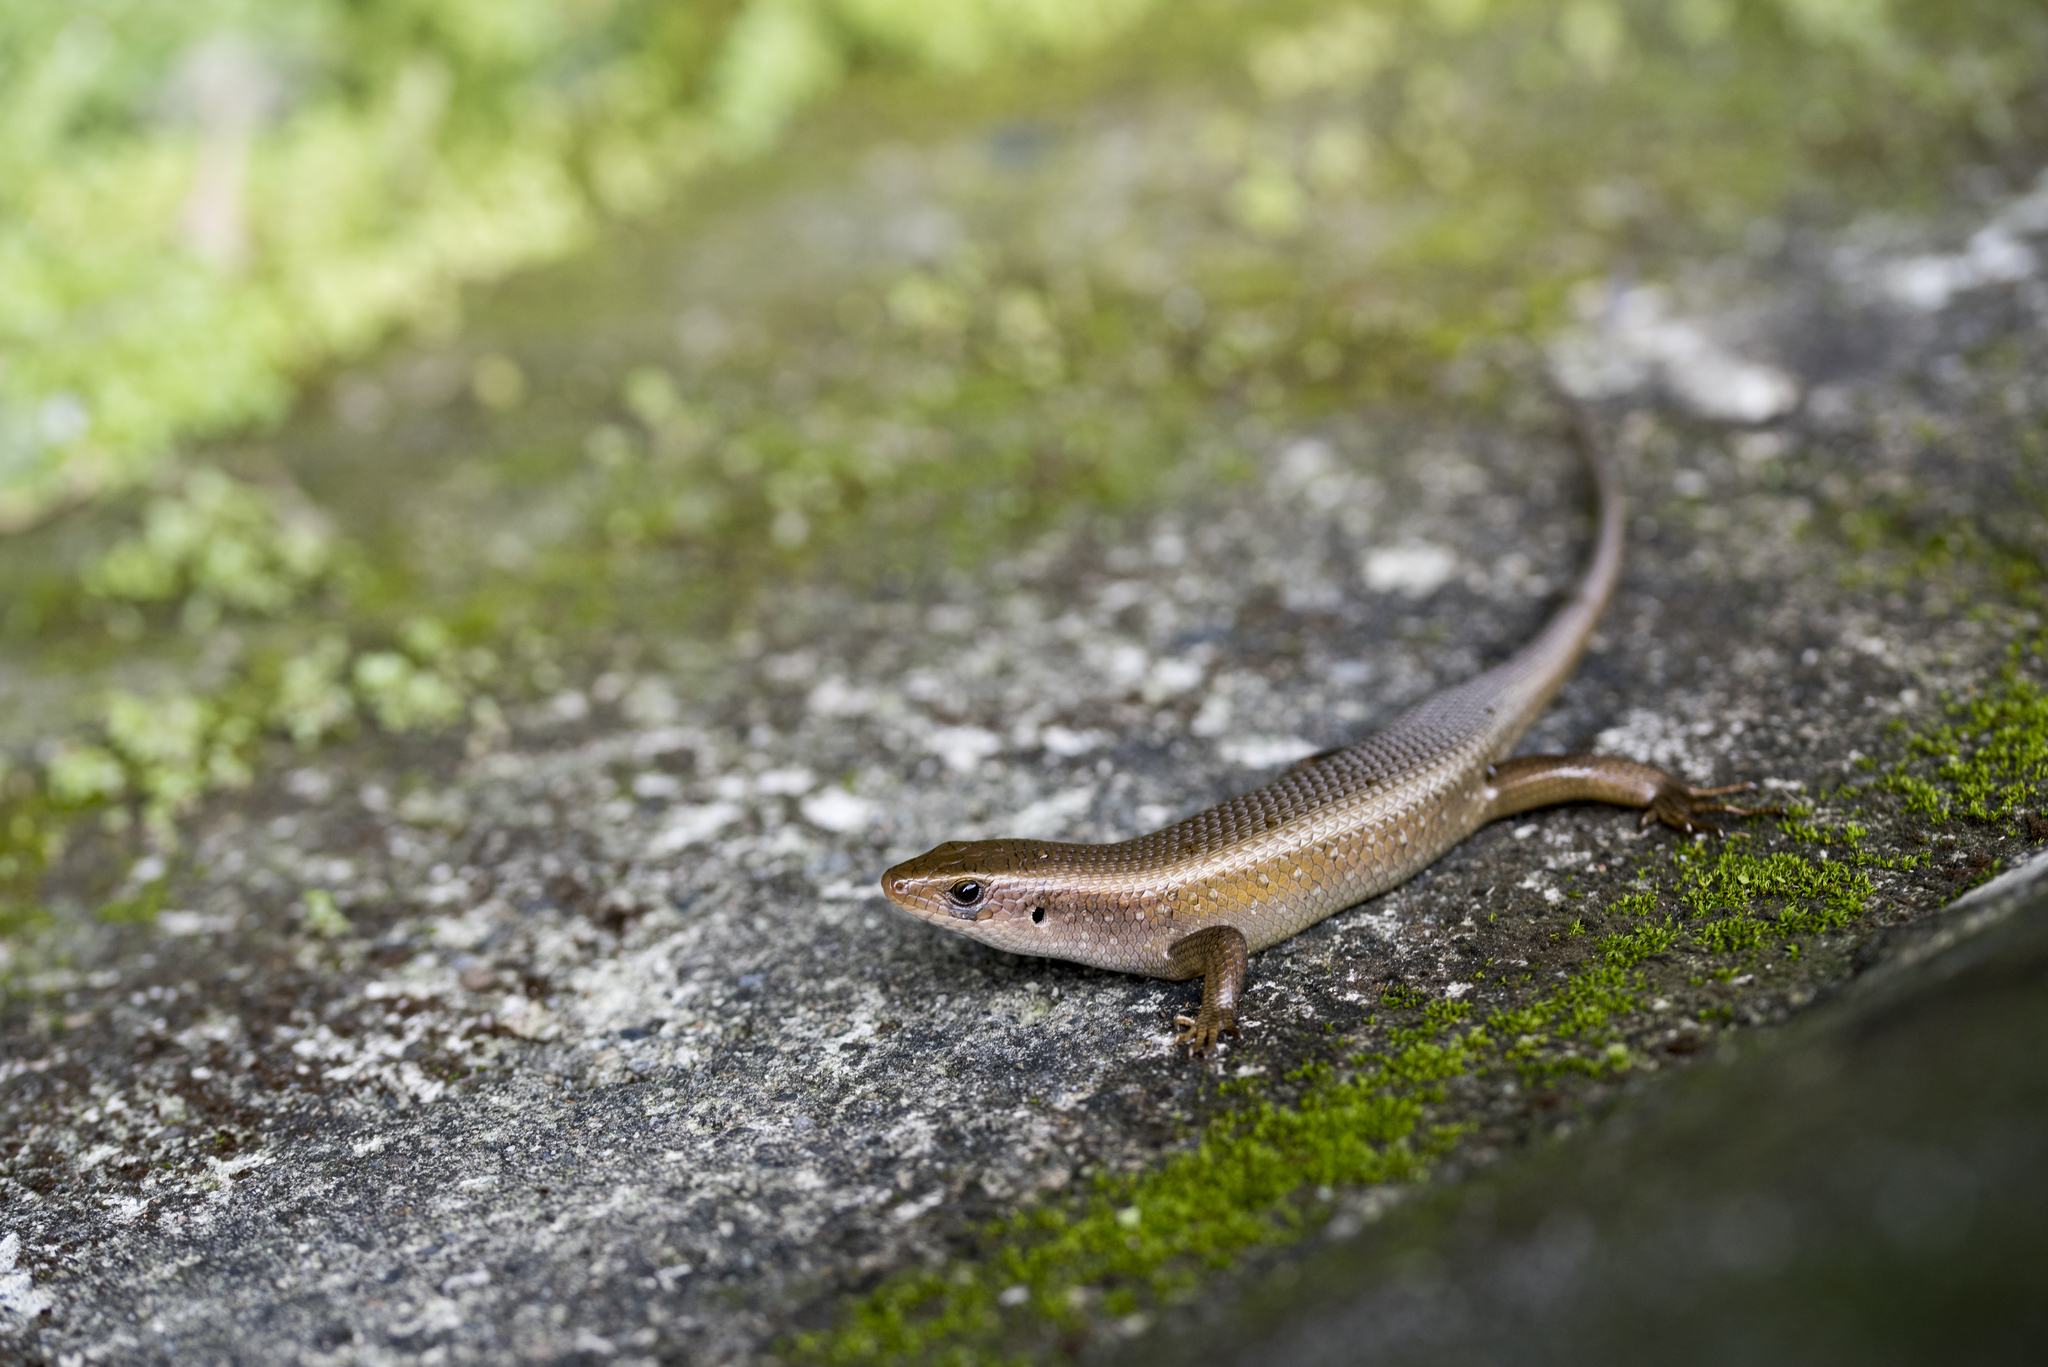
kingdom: Animalia
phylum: Chordata
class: Squamata
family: Scincidae
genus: Eutropis
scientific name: Eutropis multifasciata
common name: Common mabuya
